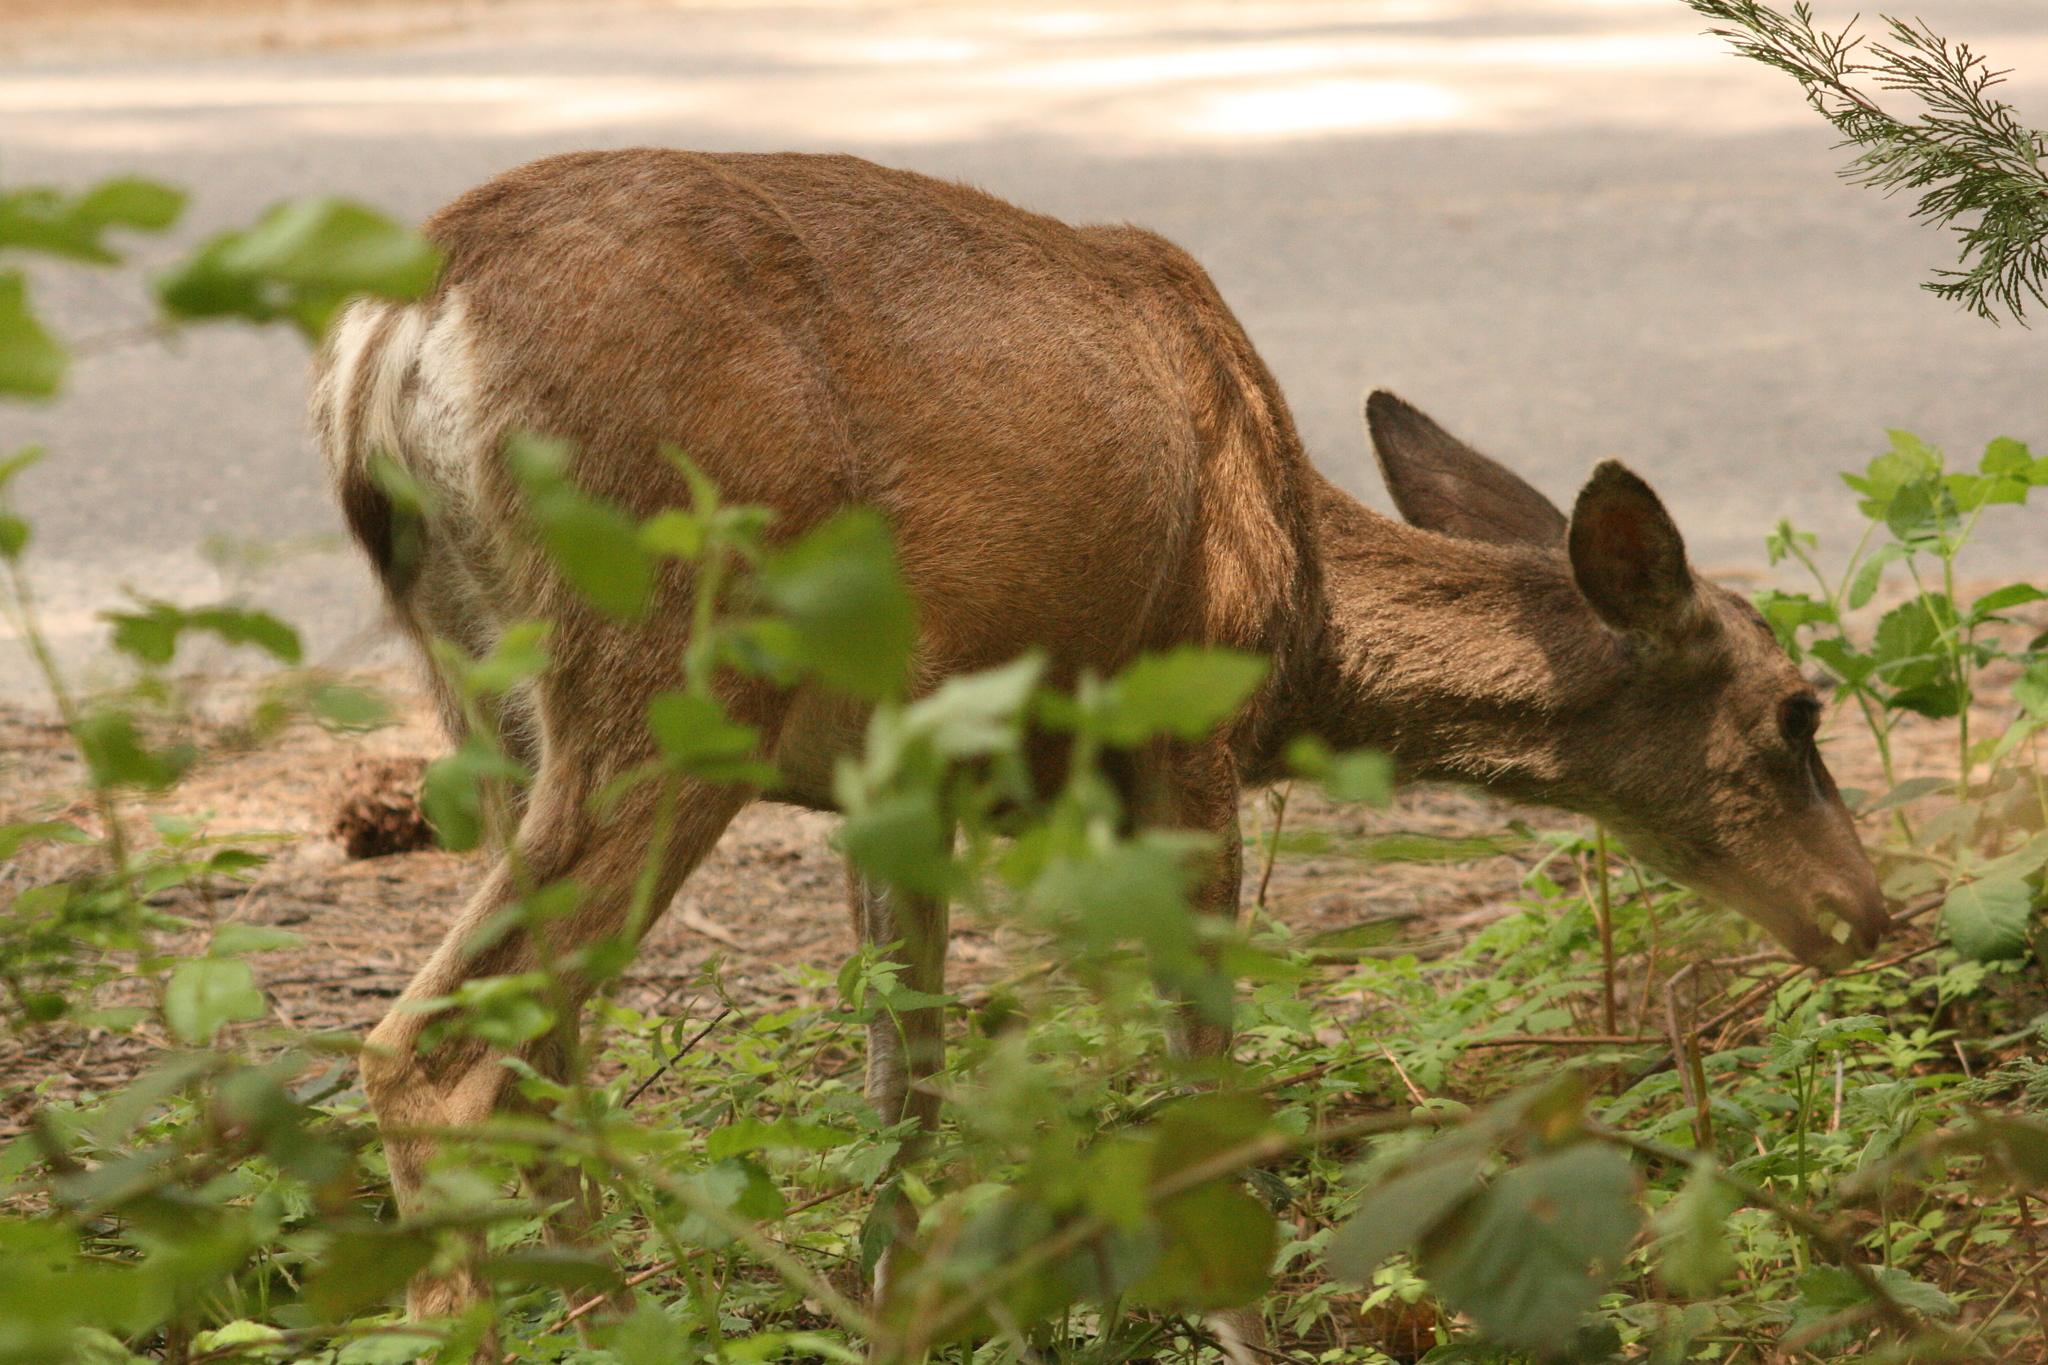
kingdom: Animalia
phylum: Chordata
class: Mammalia
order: Artiodactyla
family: Cervidae
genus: Odocoileus
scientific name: Odocoileus hemionus
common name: Mule deer
